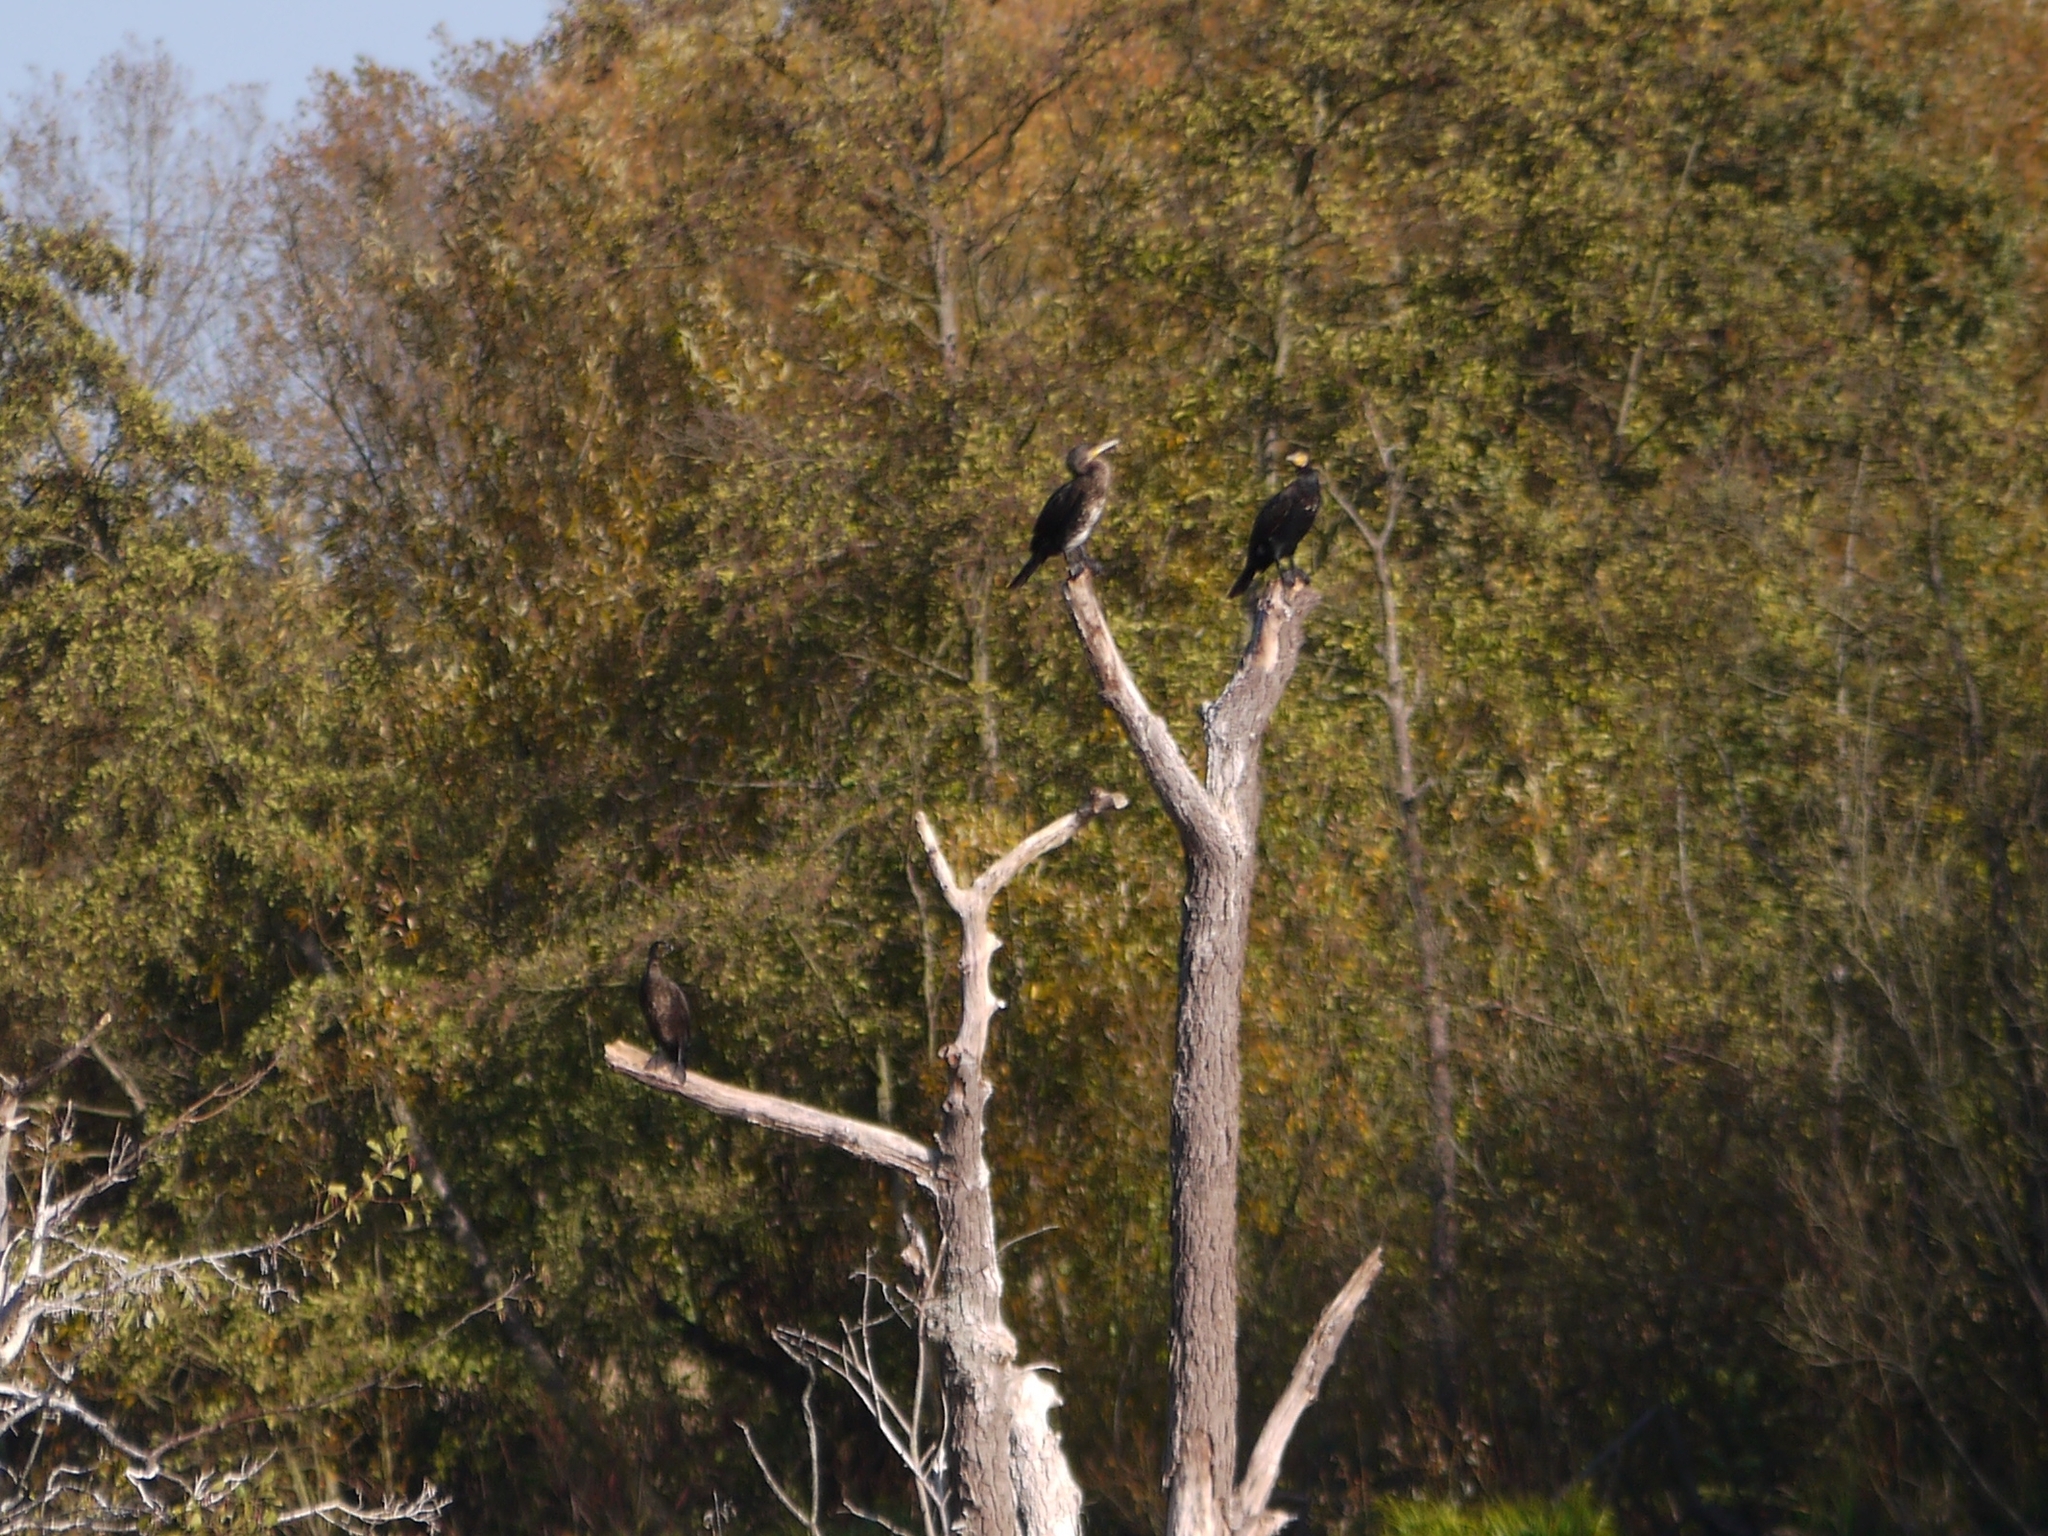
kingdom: Animalia
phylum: Chordata
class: Aves
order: Suliformes
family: Phalacrocoracidae
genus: Phalacrocorax
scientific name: Phalacrocorax carbo
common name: Great cormorant
